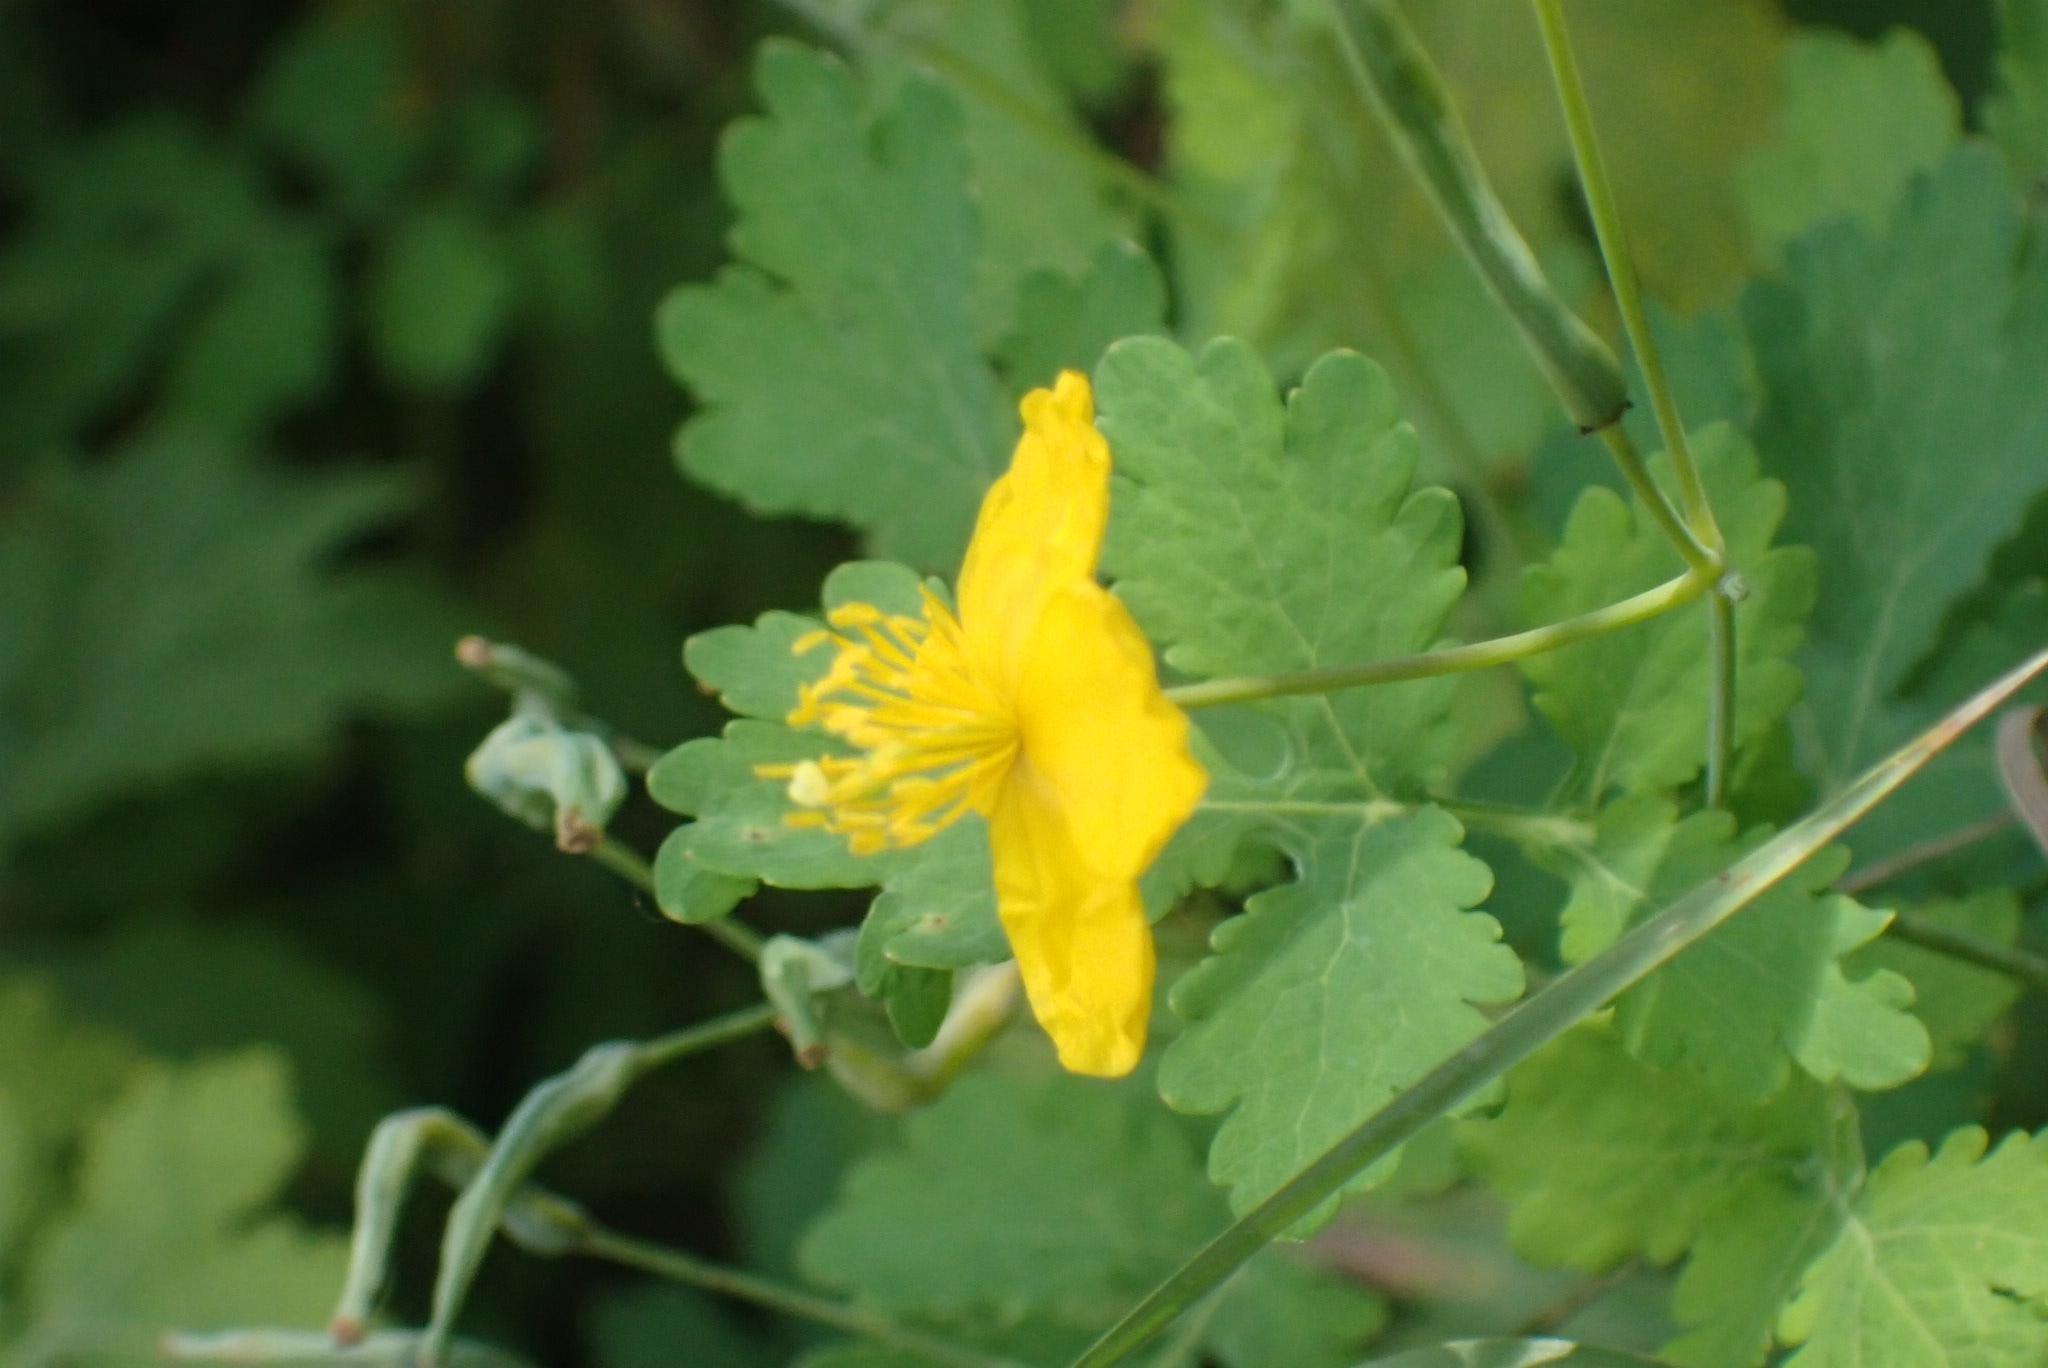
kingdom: Plantae
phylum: Tracheophyta
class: Magnoliopsida
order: Ranunculales
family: Papaveraceae
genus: Chelidonium
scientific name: Chelidonium majus
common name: Greater celandine
